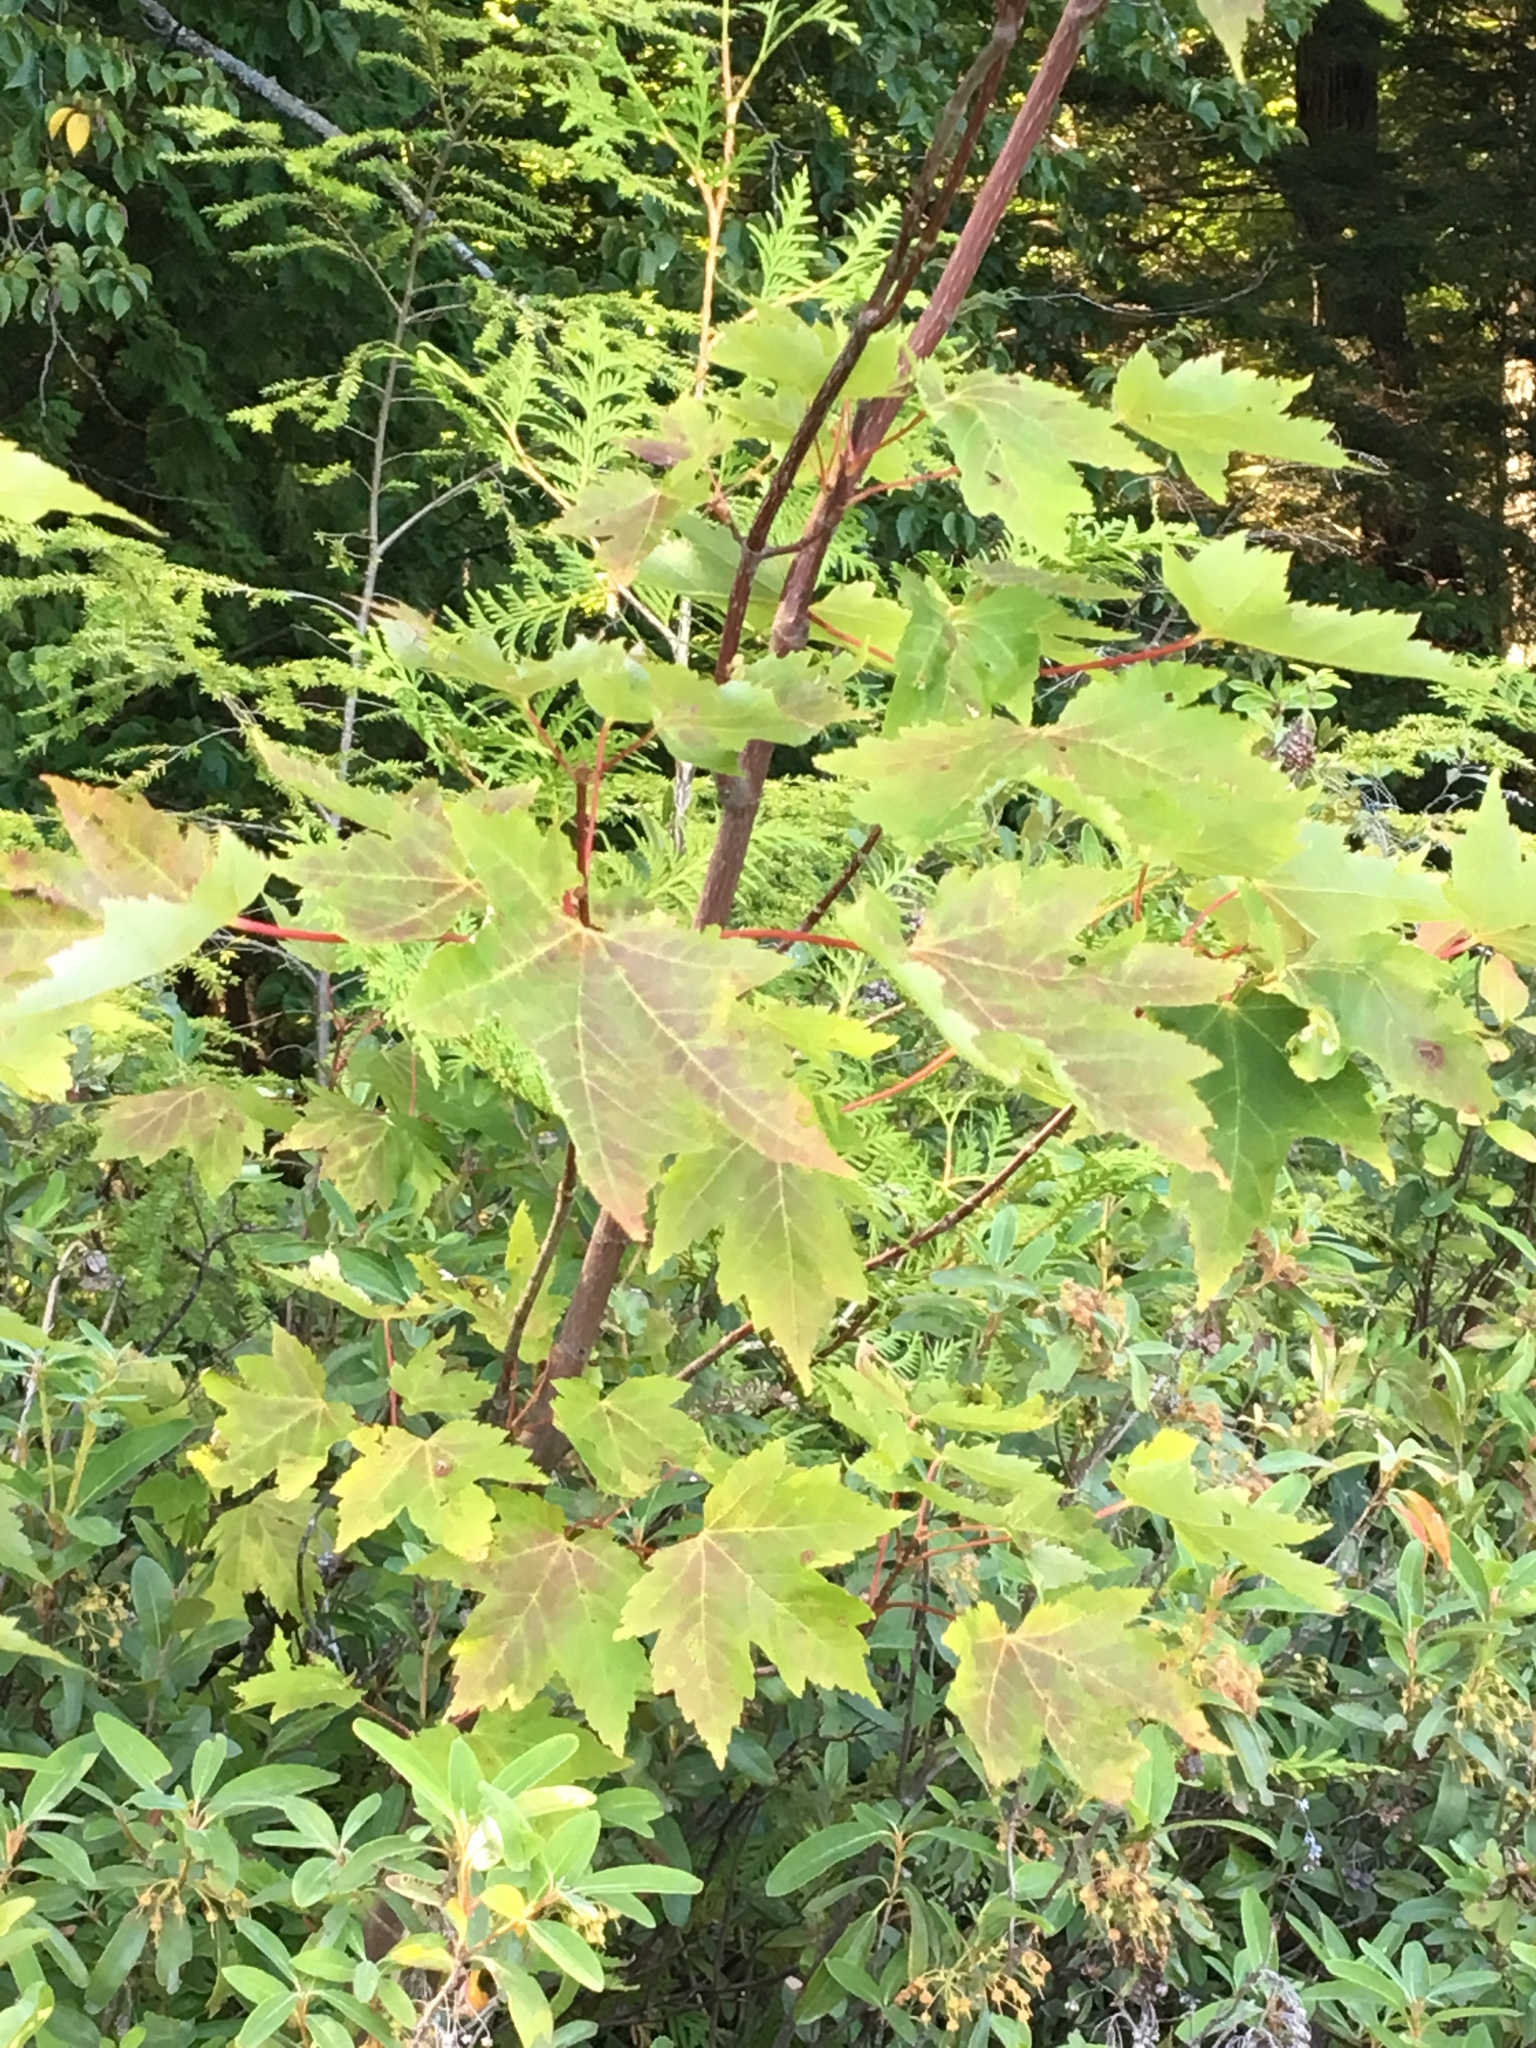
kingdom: Plantae
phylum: Tracheophyta
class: Magnoliopsida
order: Sapindales
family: Sapindaceae
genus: Acer
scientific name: Acer rubrum
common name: Red maple
